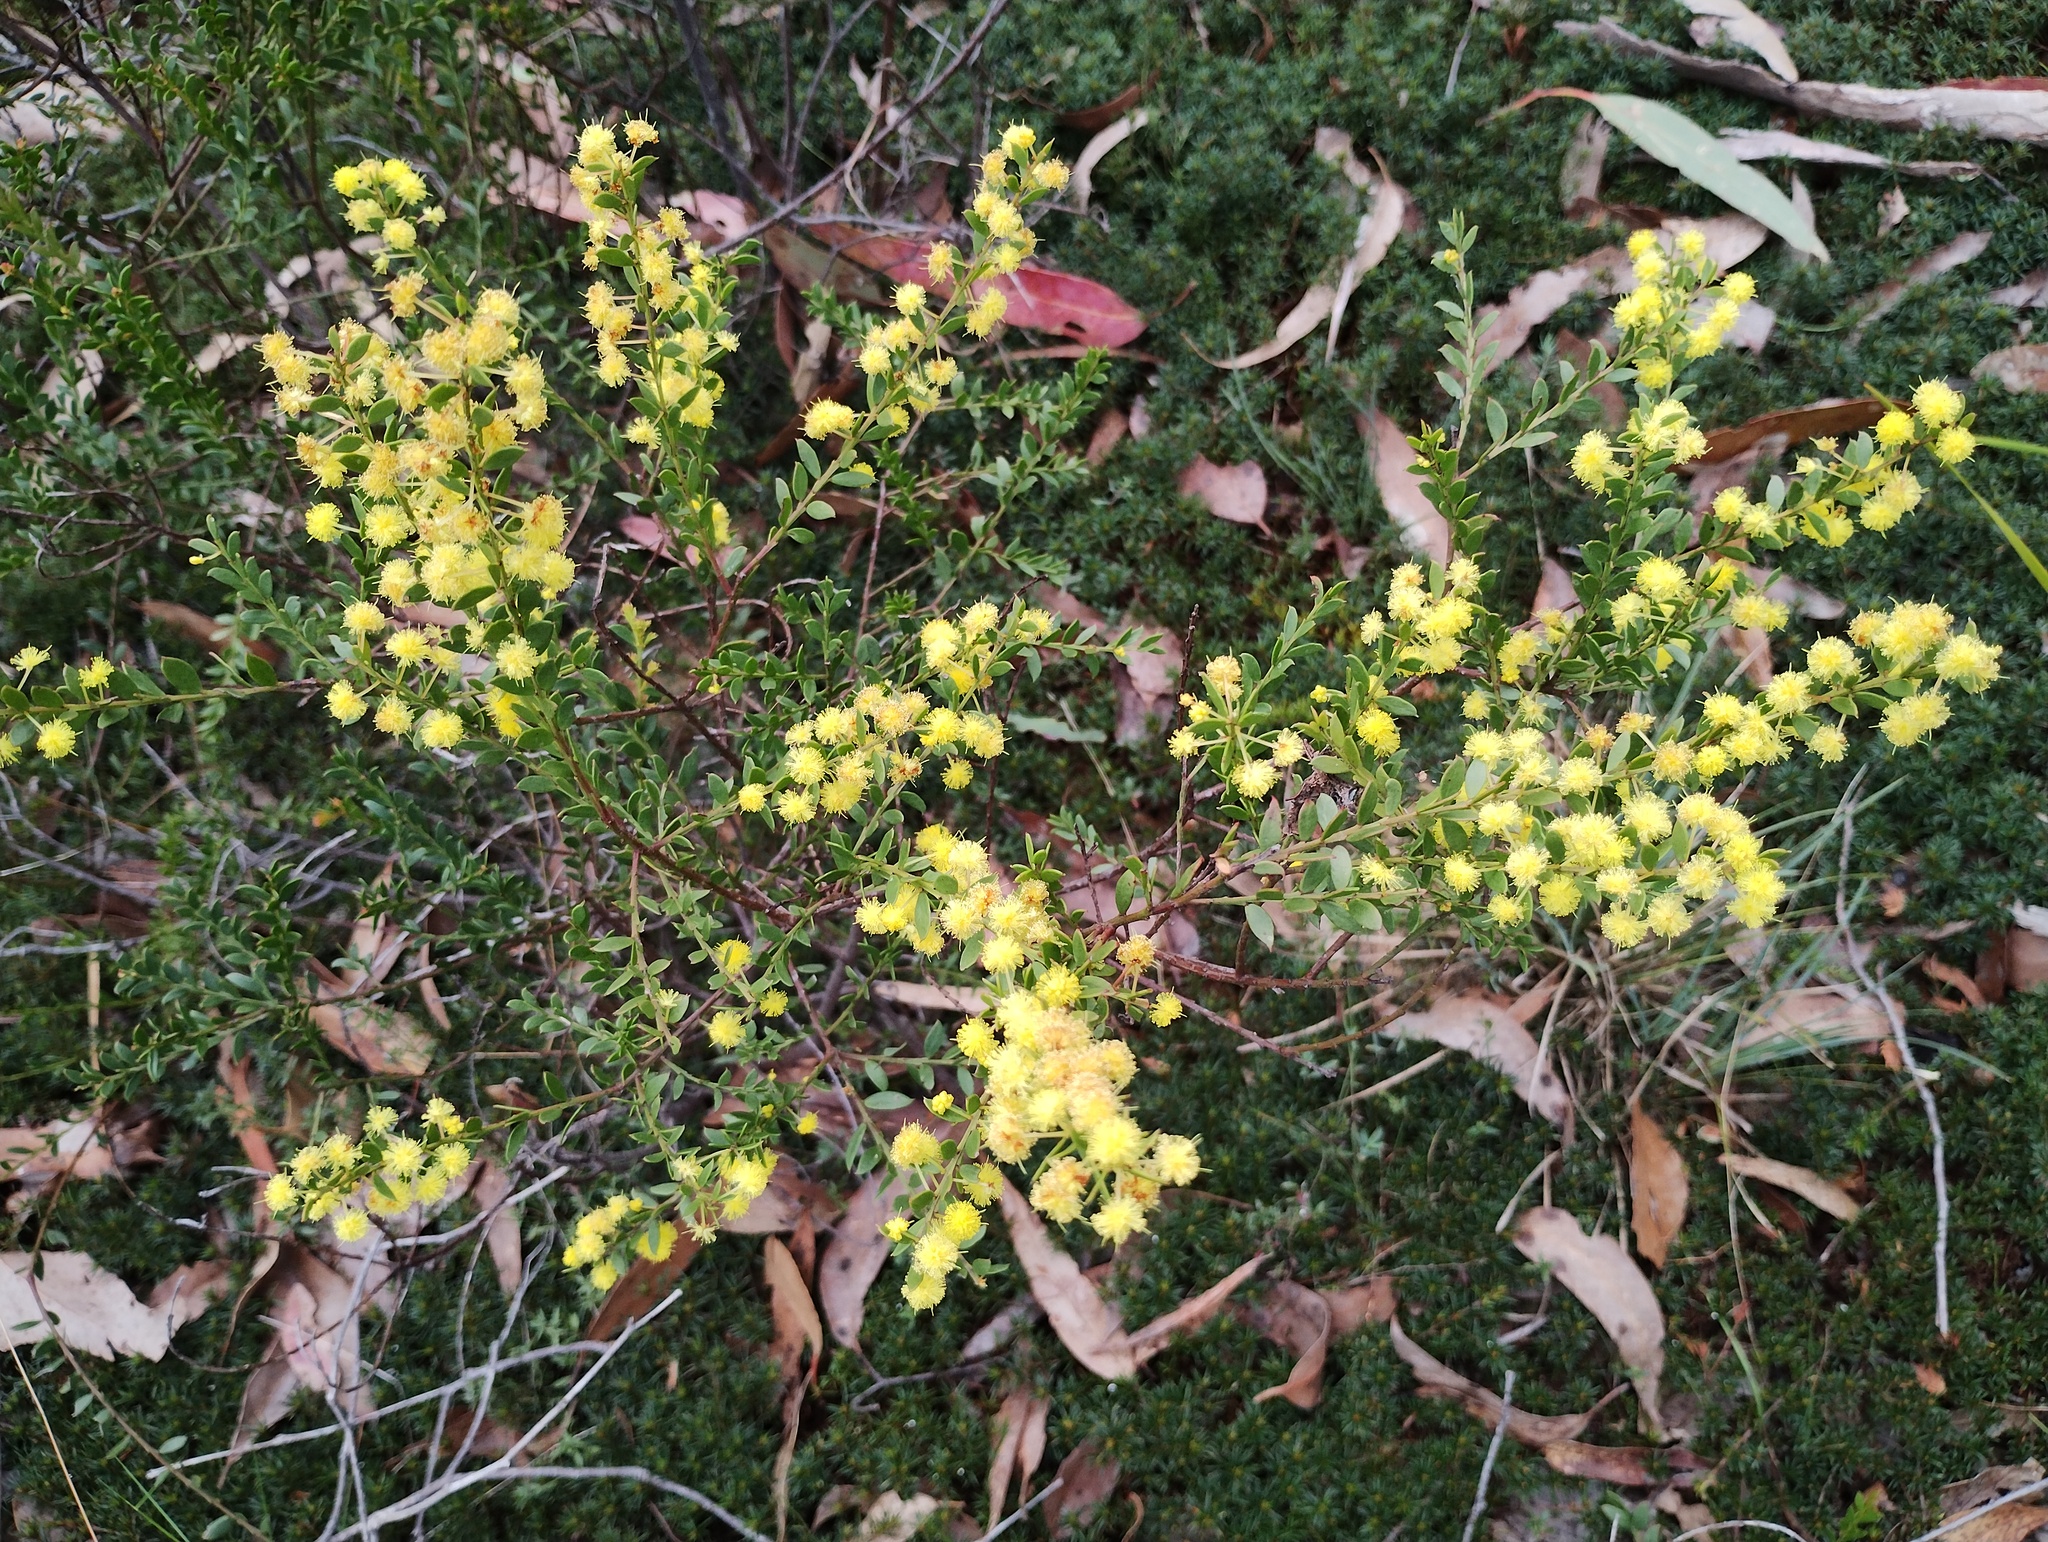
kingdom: Plantae
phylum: Tracheophyta
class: Magnoliopsida
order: Fabales
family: Fabaceae
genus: Acacia
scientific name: Acacia acinacea
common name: Gold-dust acacia
